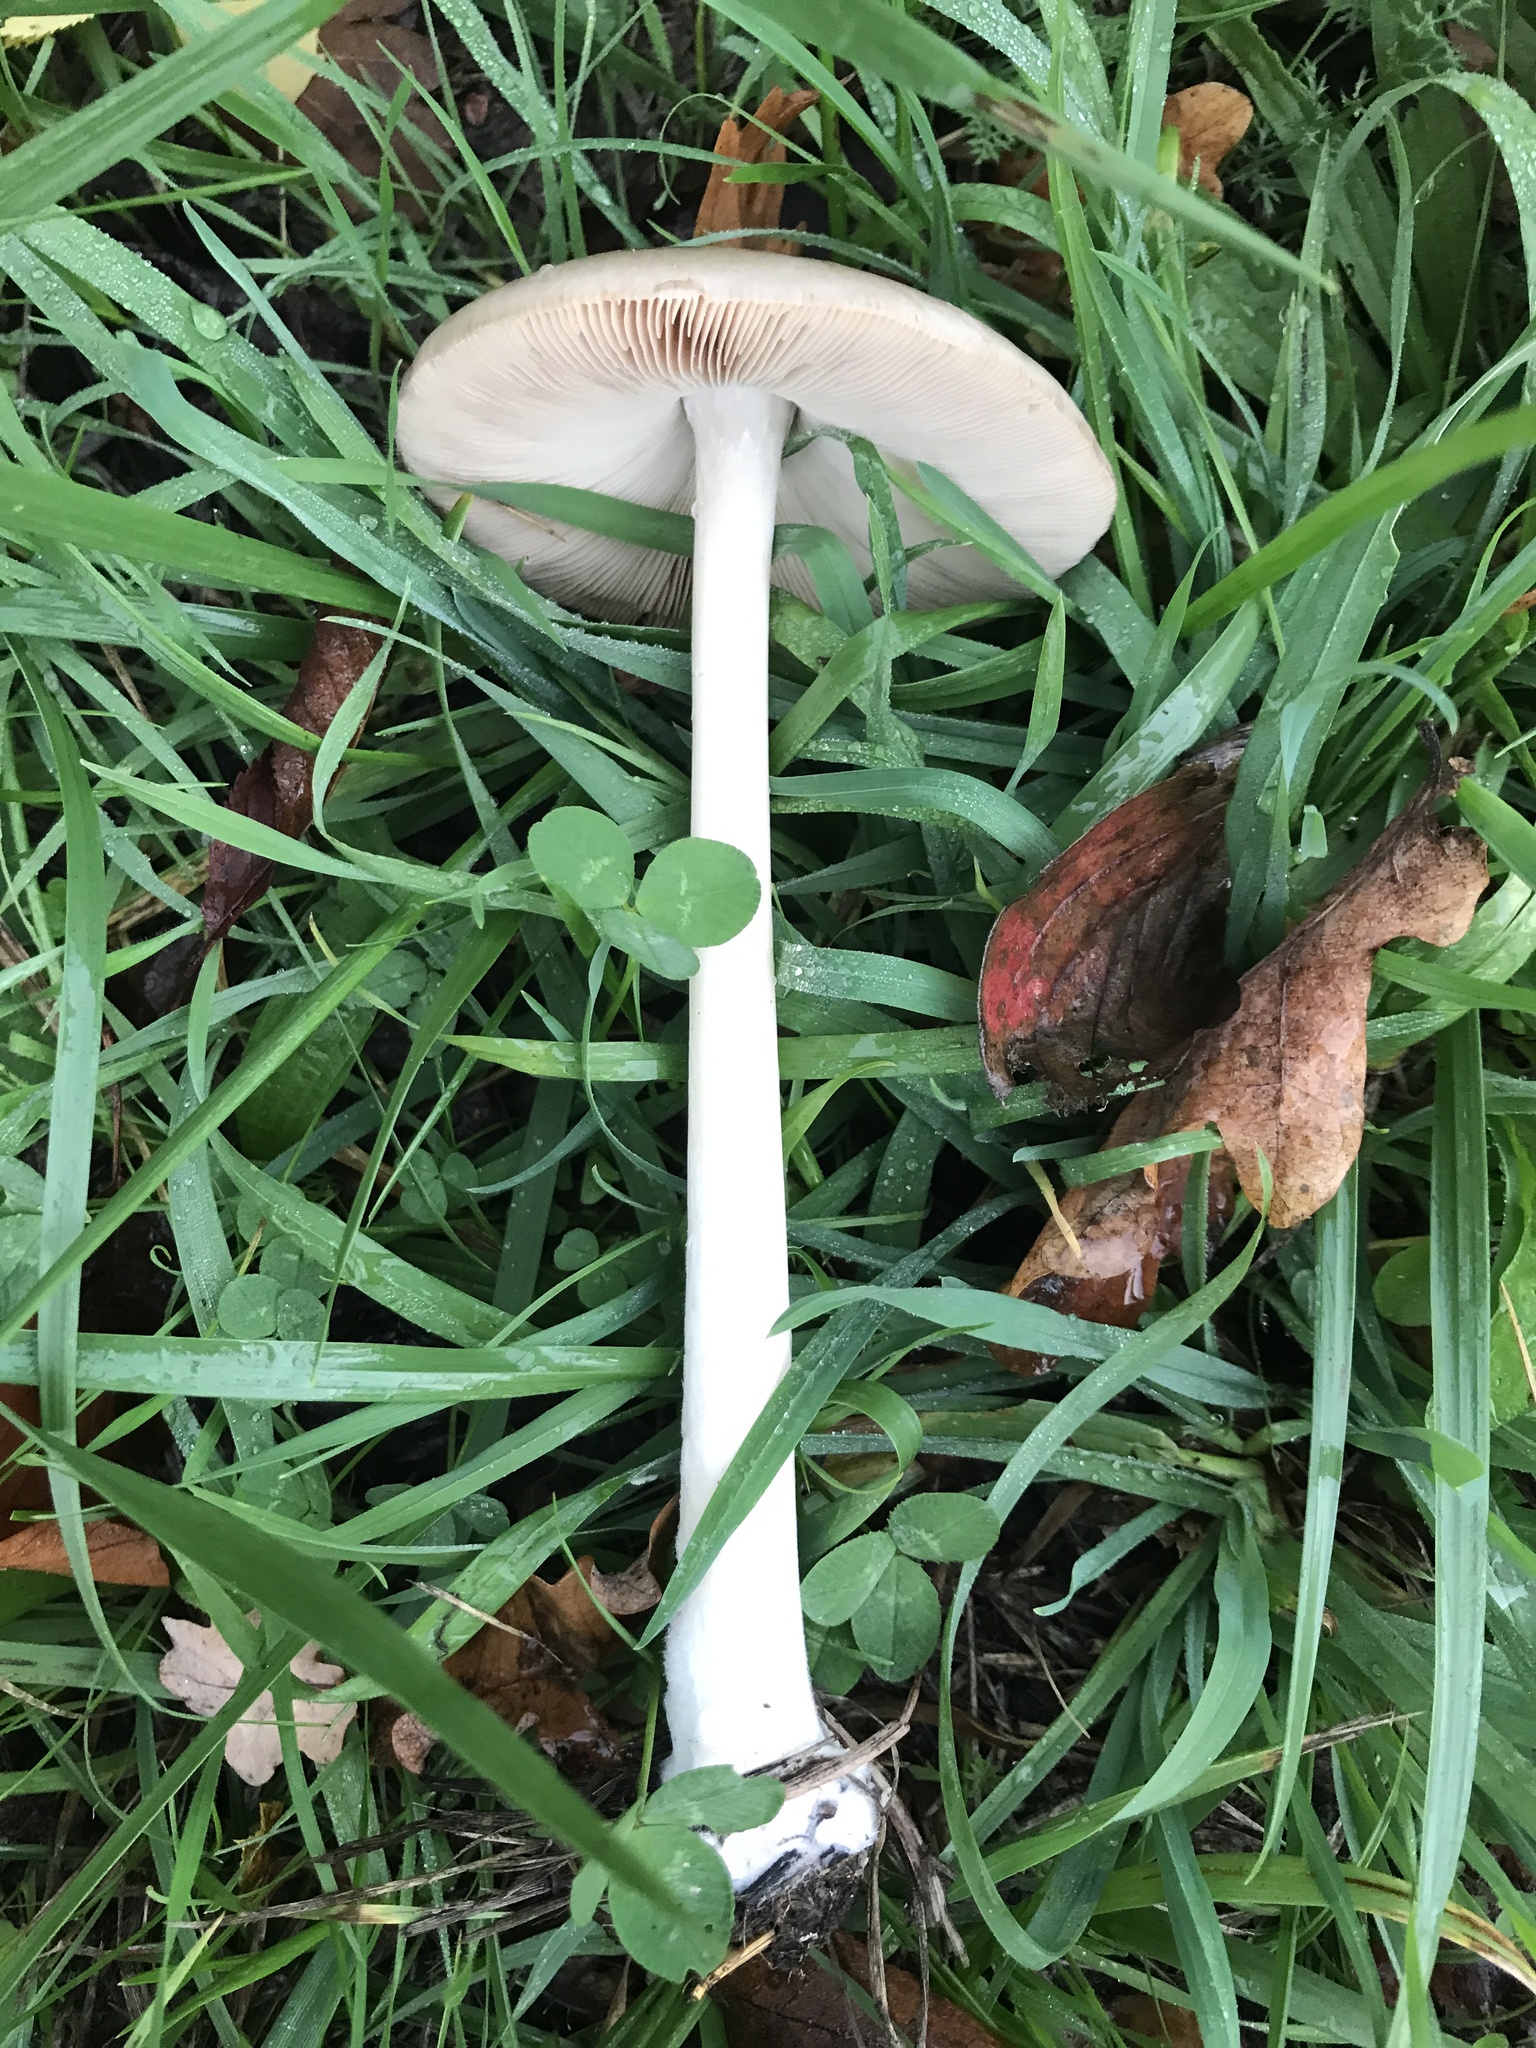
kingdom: Fungi
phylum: Basidiomycota
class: Agaricomycetes
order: Agaricales
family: Pluteaceae
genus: Volvopluteus
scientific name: Volvopluteus gloiocephalus
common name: Stubble rosegill
